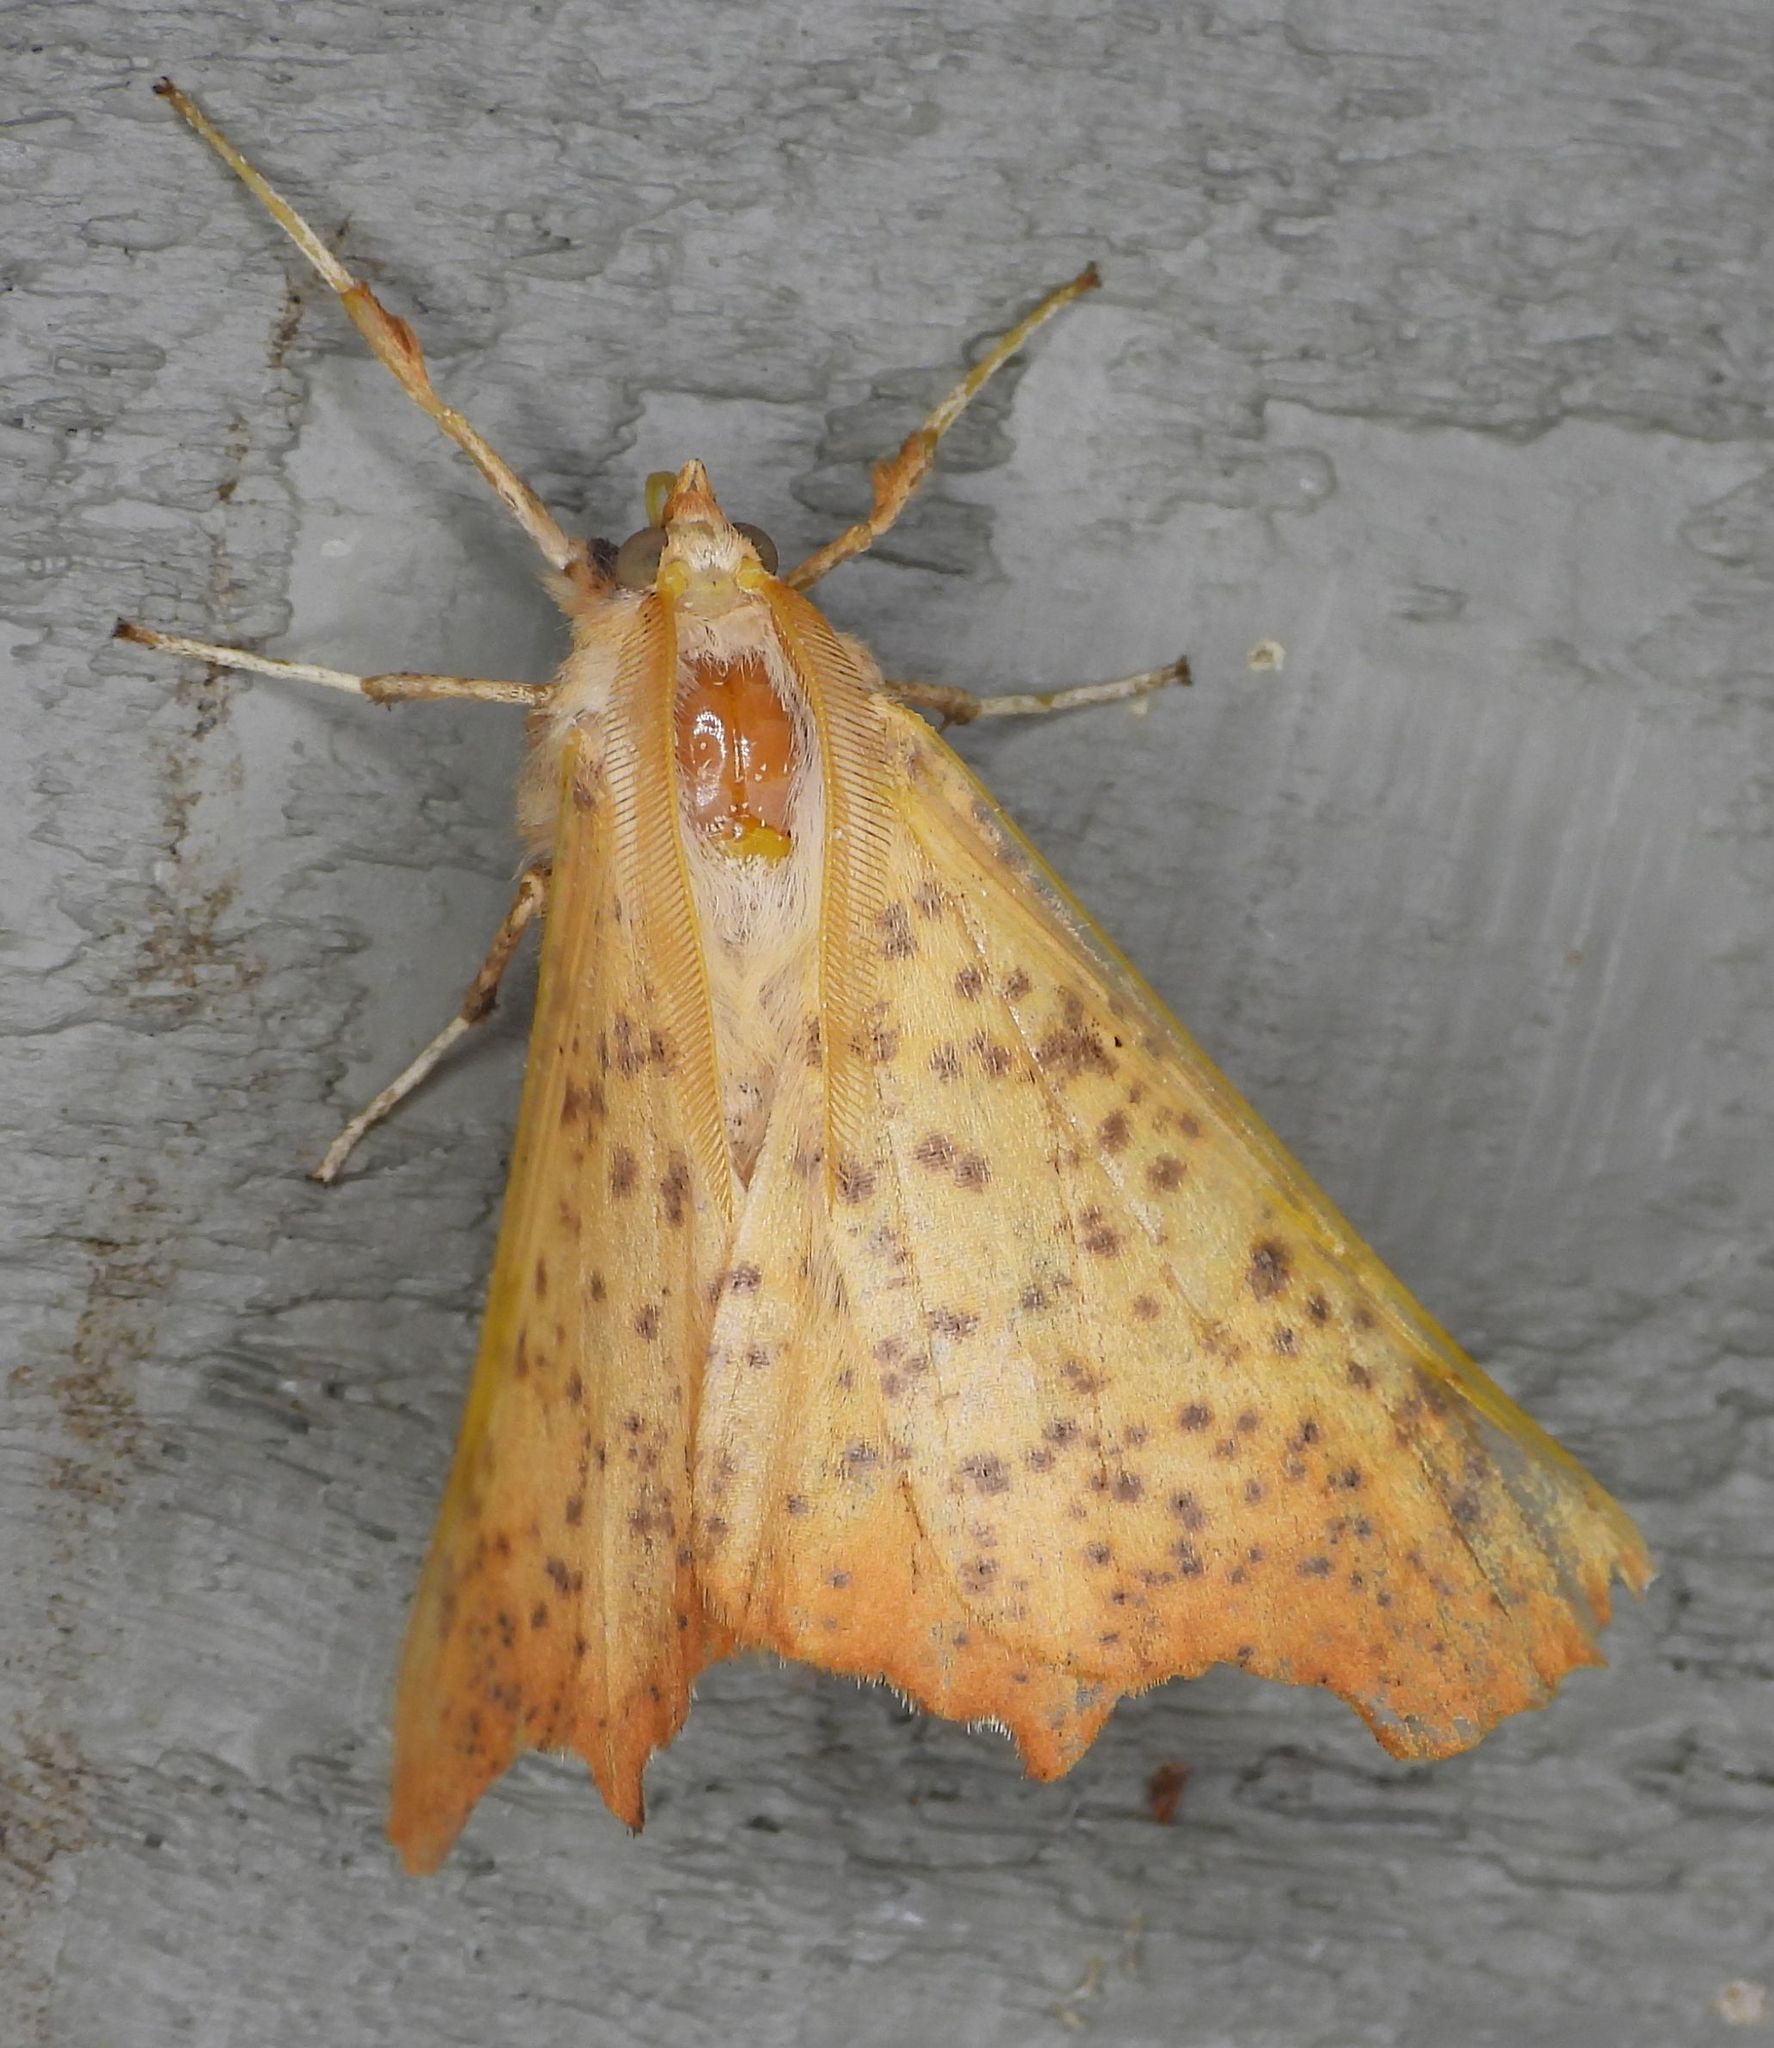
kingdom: Animalia
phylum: Arthropoda
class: Insecta
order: Lepidoptera
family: Geometridae
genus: Ennomos
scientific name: Ennomos magnaria
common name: Maple spanworm
